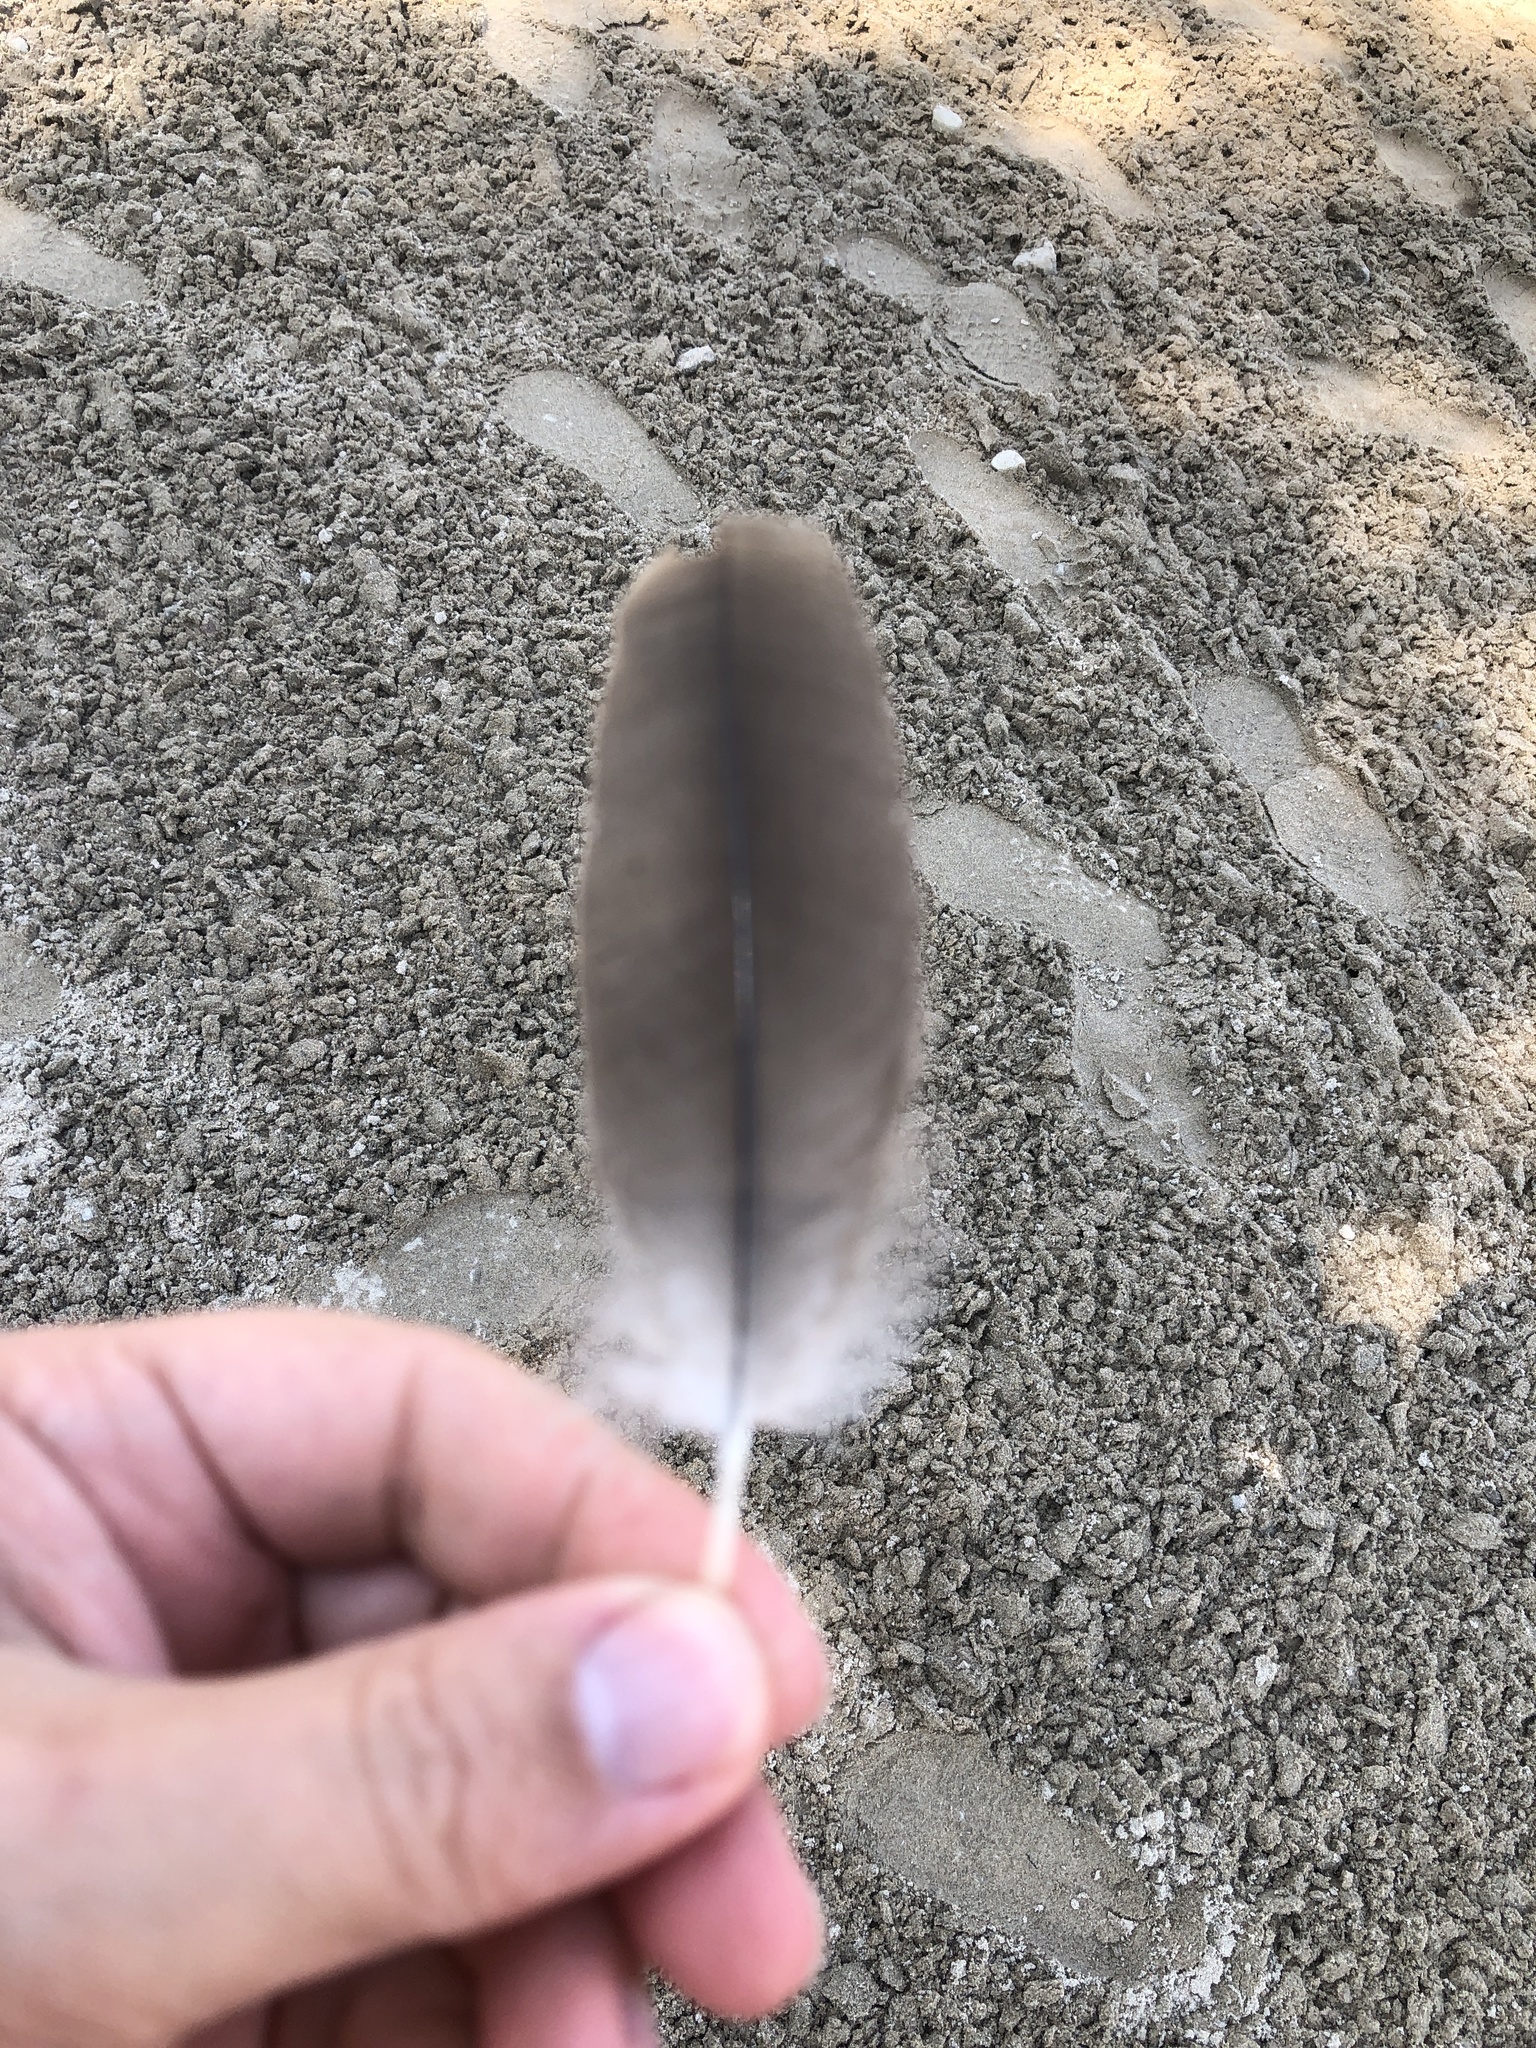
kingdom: Animalia
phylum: Chordata
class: Aves
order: Anseriformes
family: Anatidae
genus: Branta
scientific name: Branta canadensis
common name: Canada goose
